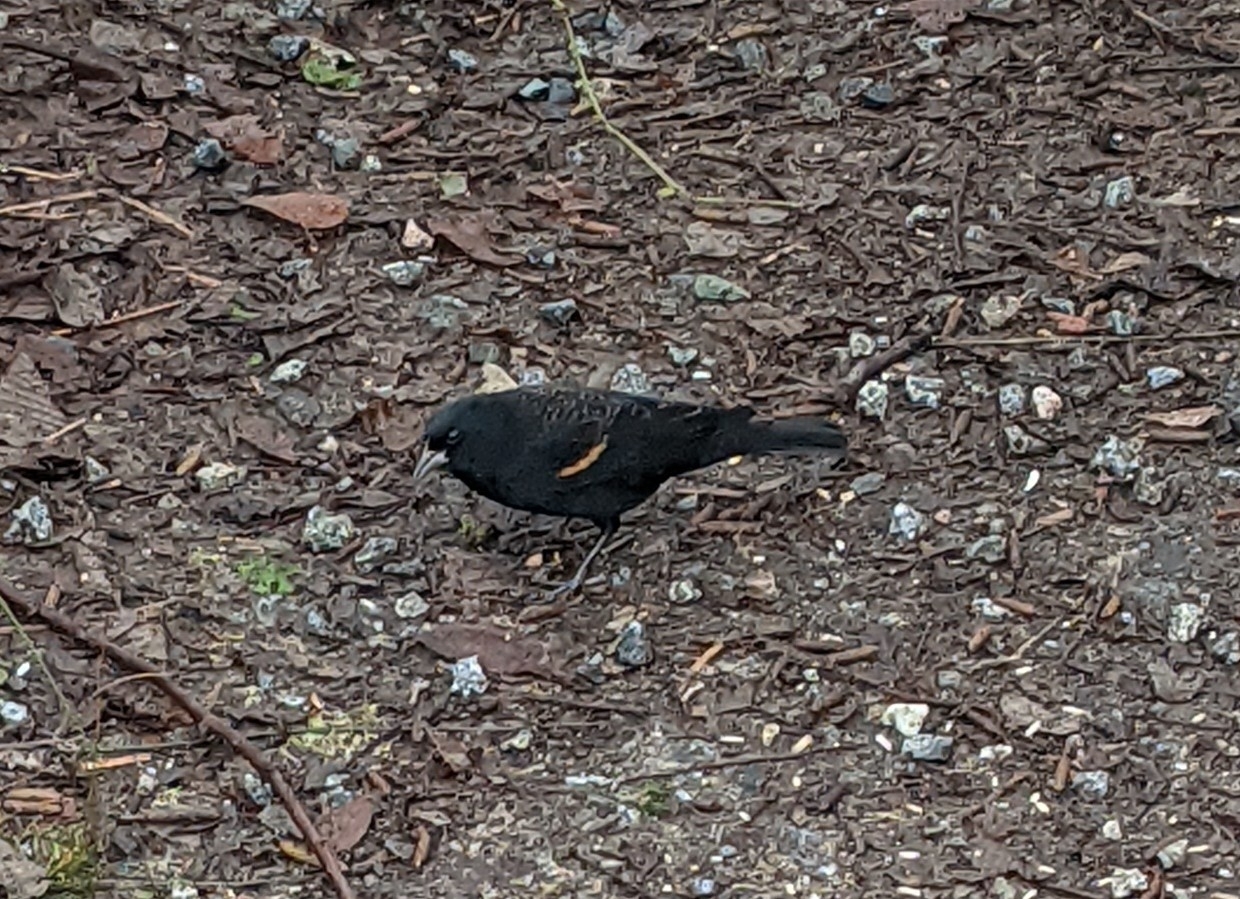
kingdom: Animalia
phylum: Chordata
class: Aves
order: Passeriformes
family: Icteridae
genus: Agelaius
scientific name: Agelaius phoeniceus
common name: Red-winged blackbird
